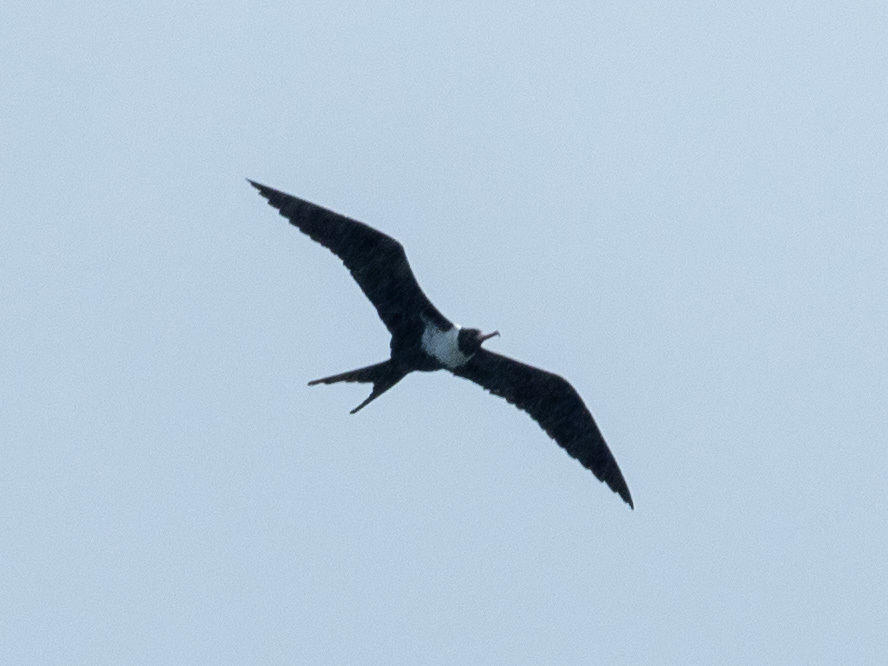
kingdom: Animalia
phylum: Chordata
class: Aves
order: Suliformes
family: Fregatidae
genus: Fregata
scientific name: Fregata ariel
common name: Lesser frigatebird
